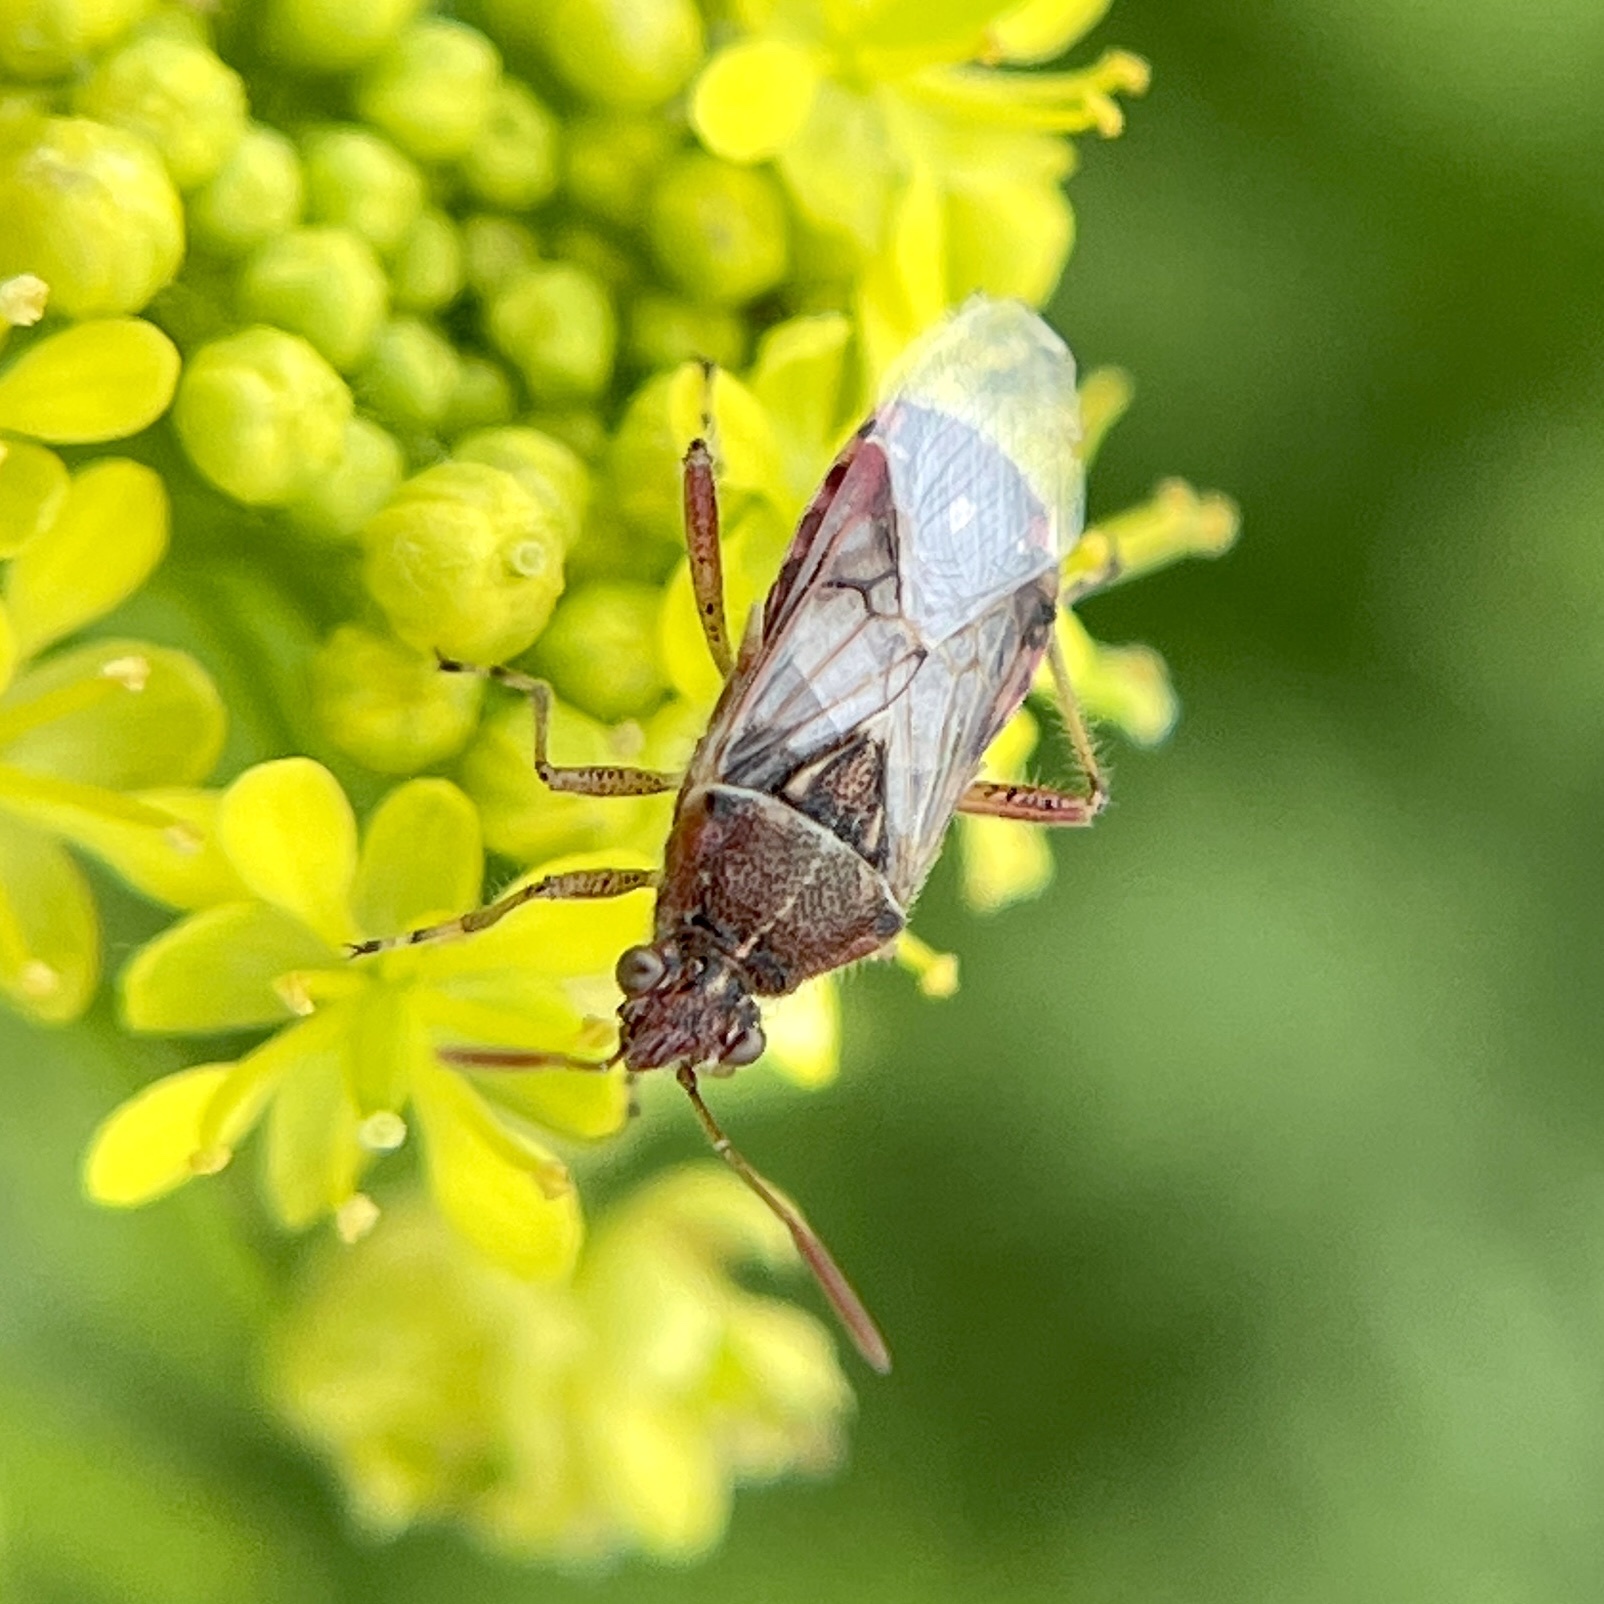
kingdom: Animalia
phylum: Arthropoda
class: Insecta
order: Hemiptera
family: Rhopalidae
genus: Liorhyssus
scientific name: Liorhyssus hyalinus
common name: Scentless plant bug
